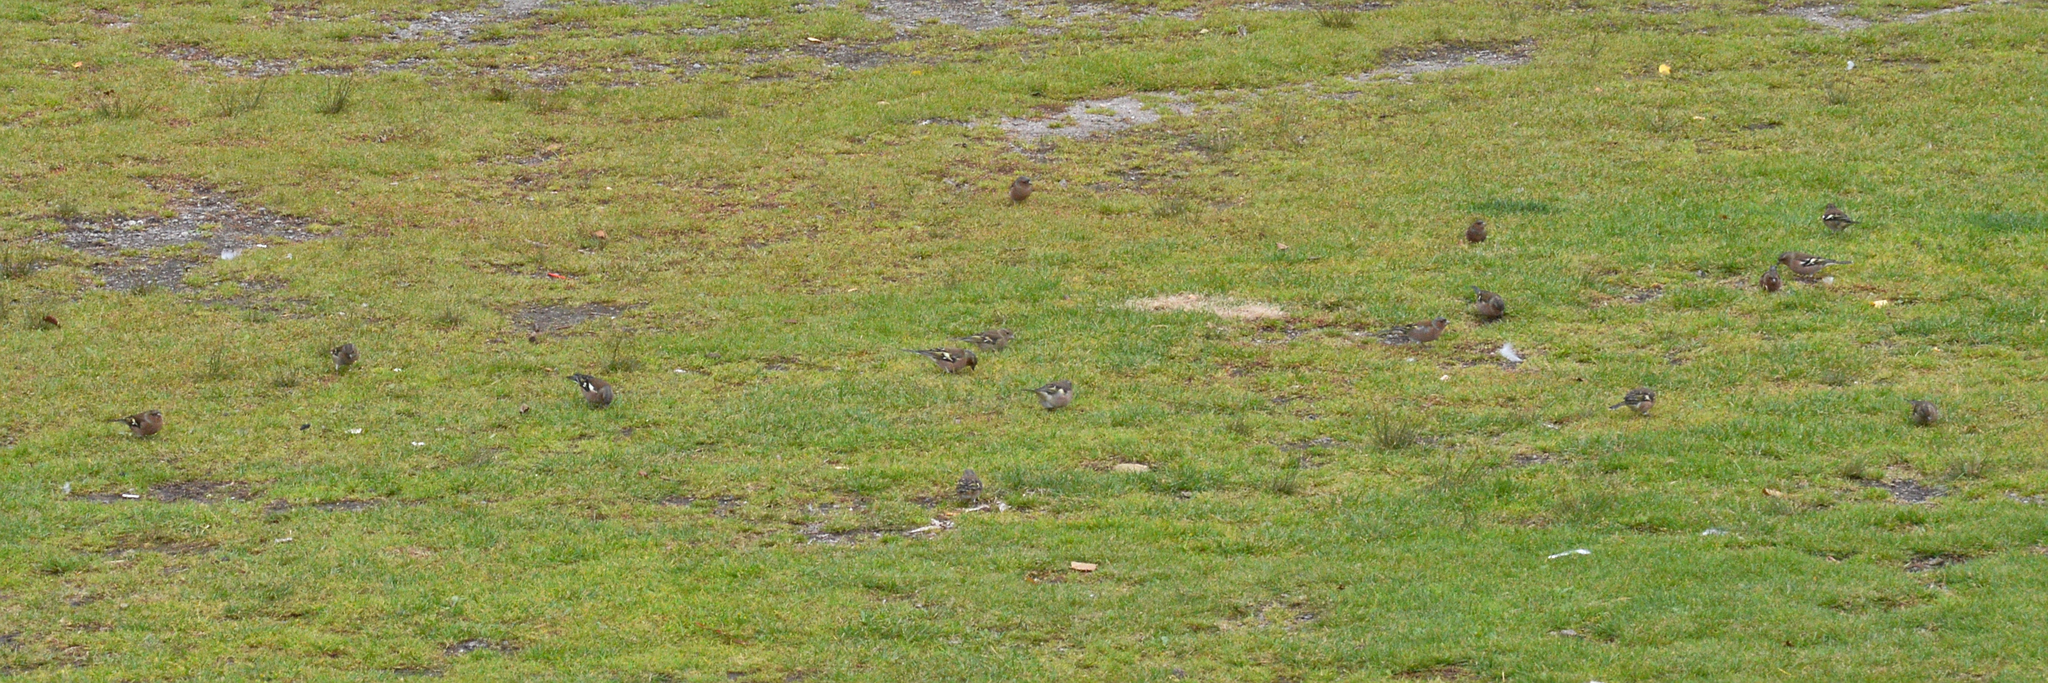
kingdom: Animalia
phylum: Chordata
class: Aves
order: Passeriformes
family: Fringillidae
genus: Fringilla
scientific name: Fringilla coelebs
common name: Common chaffinch
